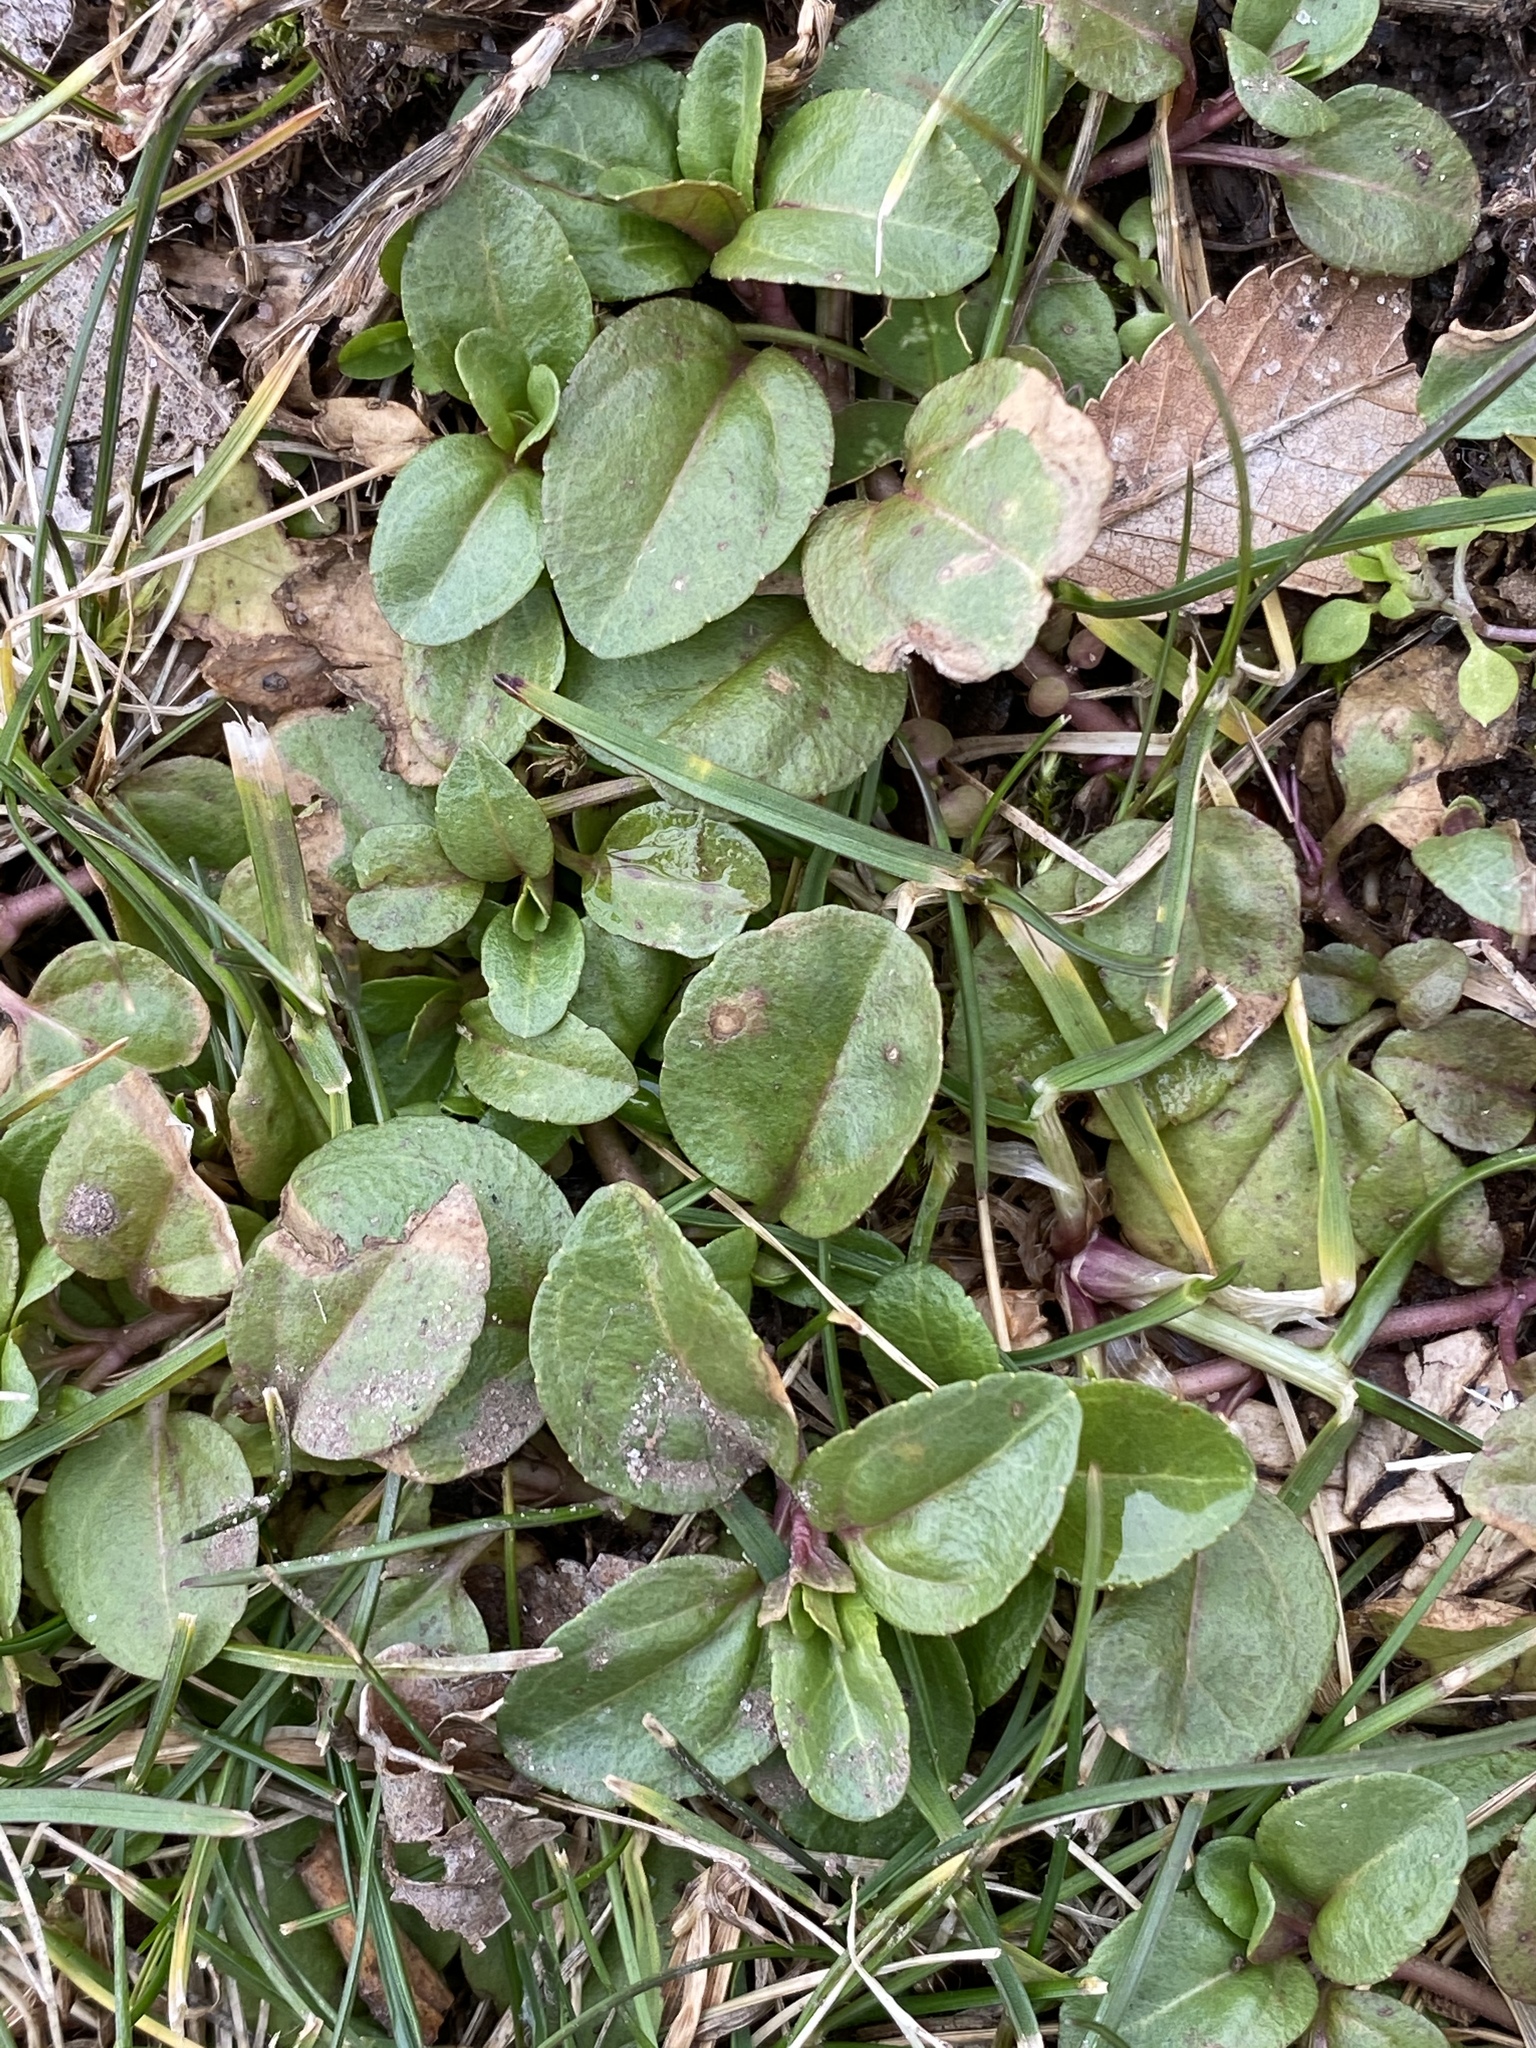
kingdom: Plantae
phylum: Tracheophyta
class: Magnoliopsida
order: Lamiales
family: Plantaginaceae
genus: Veronica
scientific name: Veronica serpyllifolia
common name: Thyme-leaved speedwell
